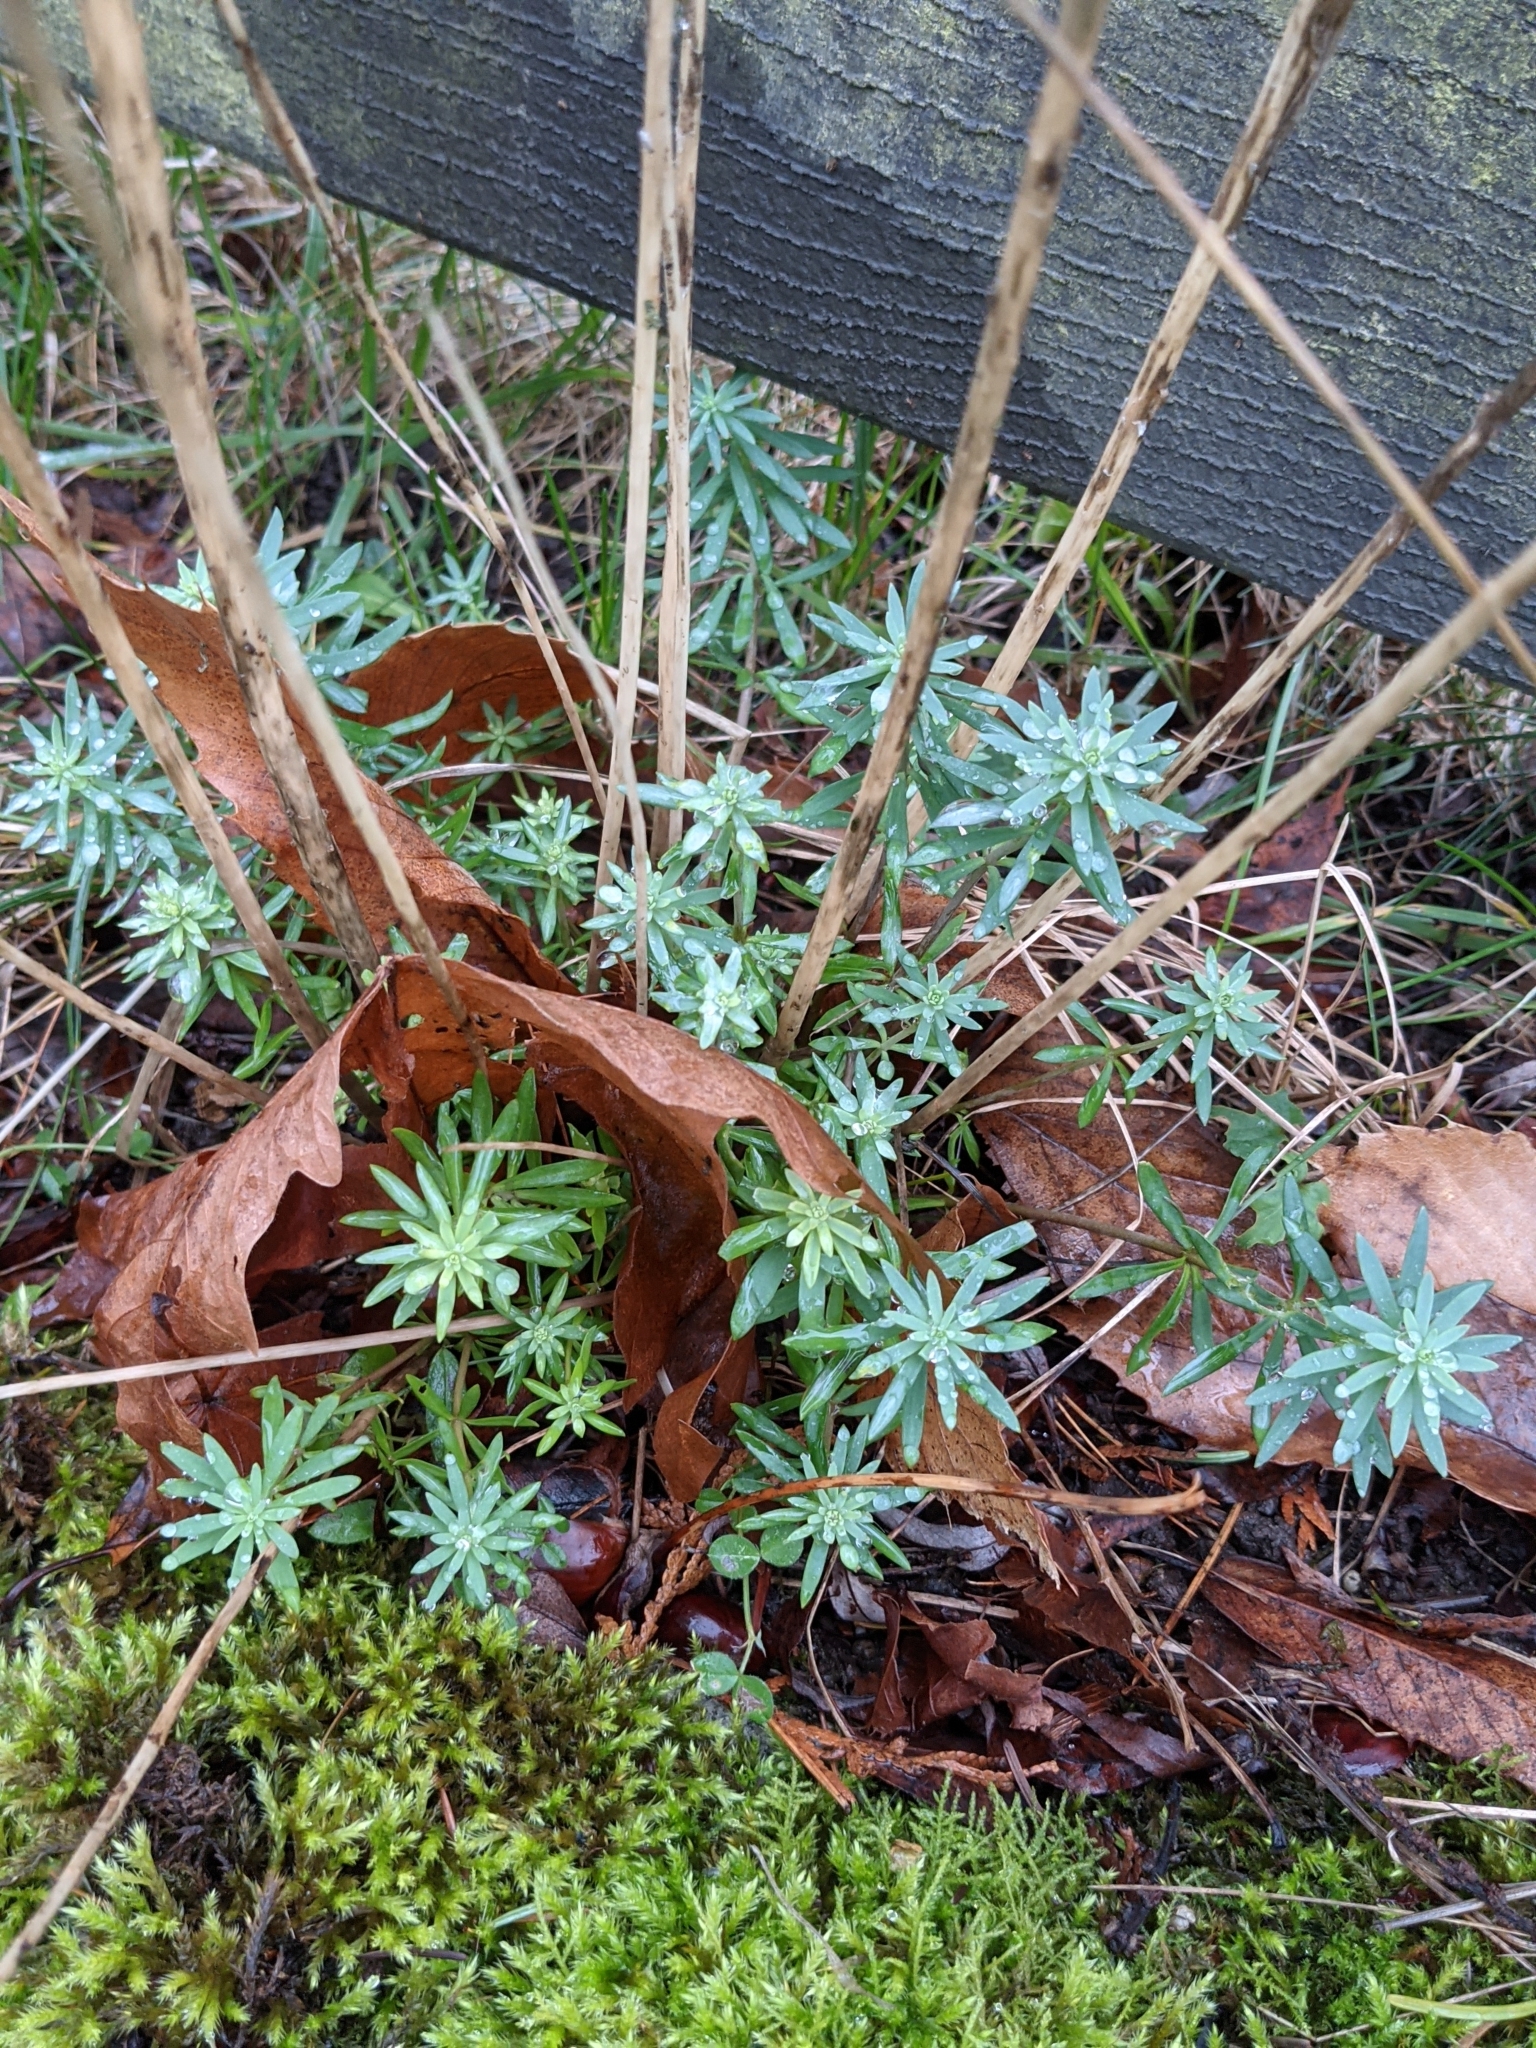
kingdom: Plantae
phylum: Tracheophyta
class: Magnoliopsida
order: Lamiales
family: Plantaginaceae
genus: Linaria
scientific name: Linaria purpurea
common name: Purple toadflax
